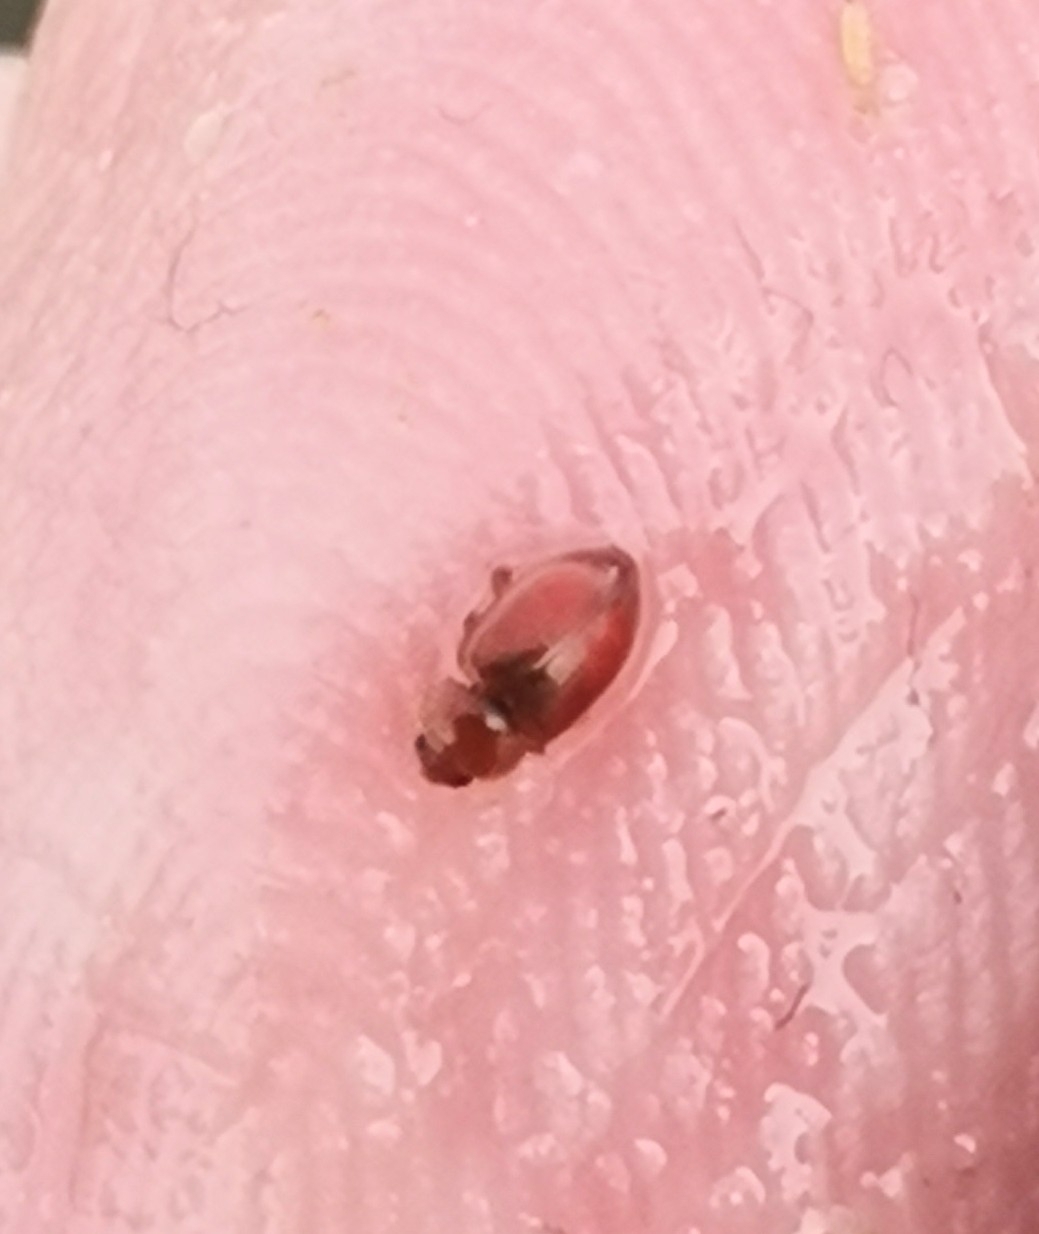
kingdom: Animalia
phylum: Arthropoda
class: Insecta
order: Coleoptera
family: Coccinellidae
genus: Coccidula
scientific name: Coccidula rufa
